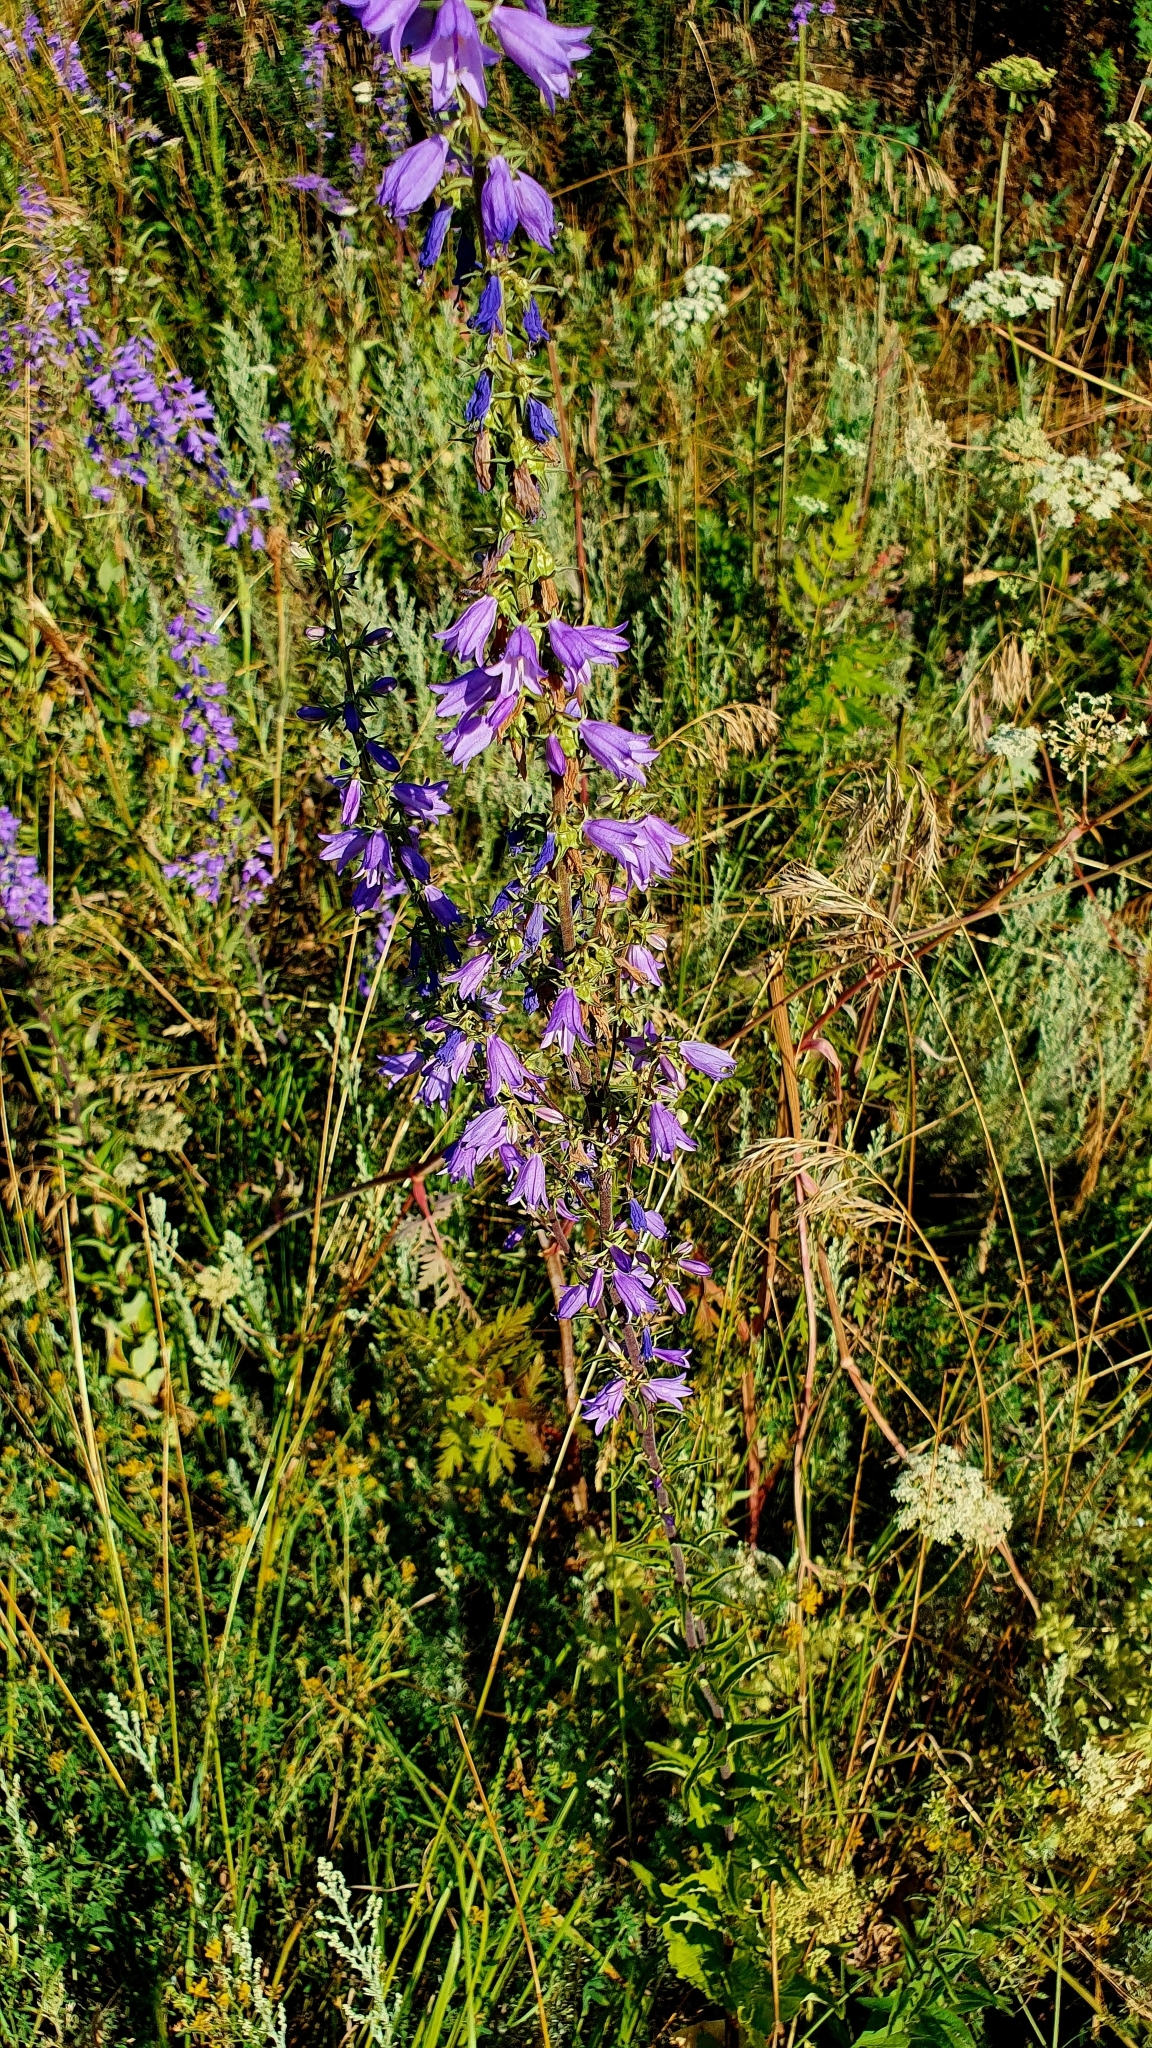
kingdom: Plantae
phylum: Tracheophyta
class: Magnoliopsida
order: Asterales
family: Campanulaceae
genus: Campanula
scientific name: Campanula bononiensis
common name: Pale bellflower
